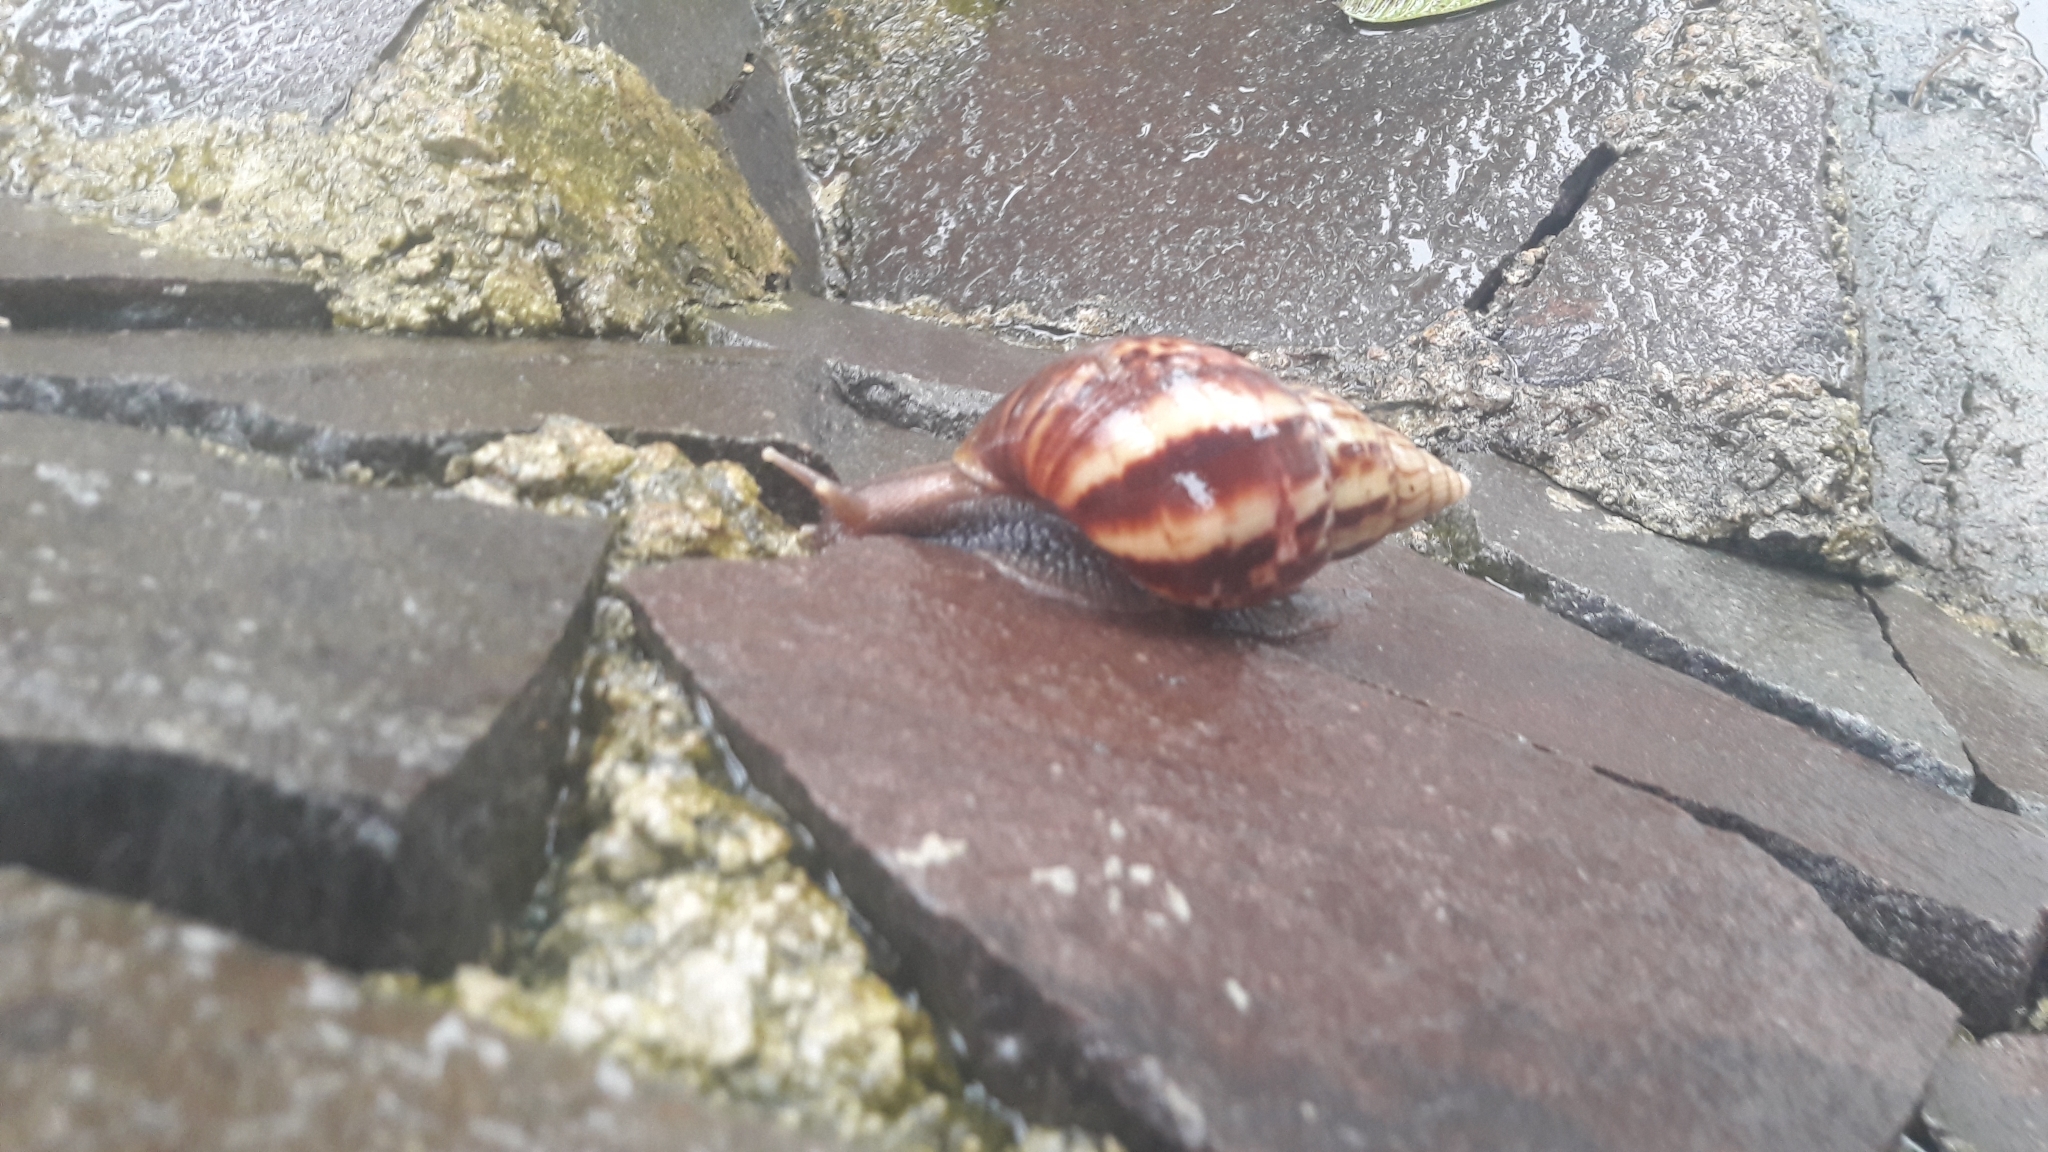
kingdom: Animalia
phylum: Mollusca
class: Gastropoda
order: Stylommatophora
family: Achatinidae
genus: Lissachatina
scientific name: Lissachatina fulica
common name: Giant african snail
